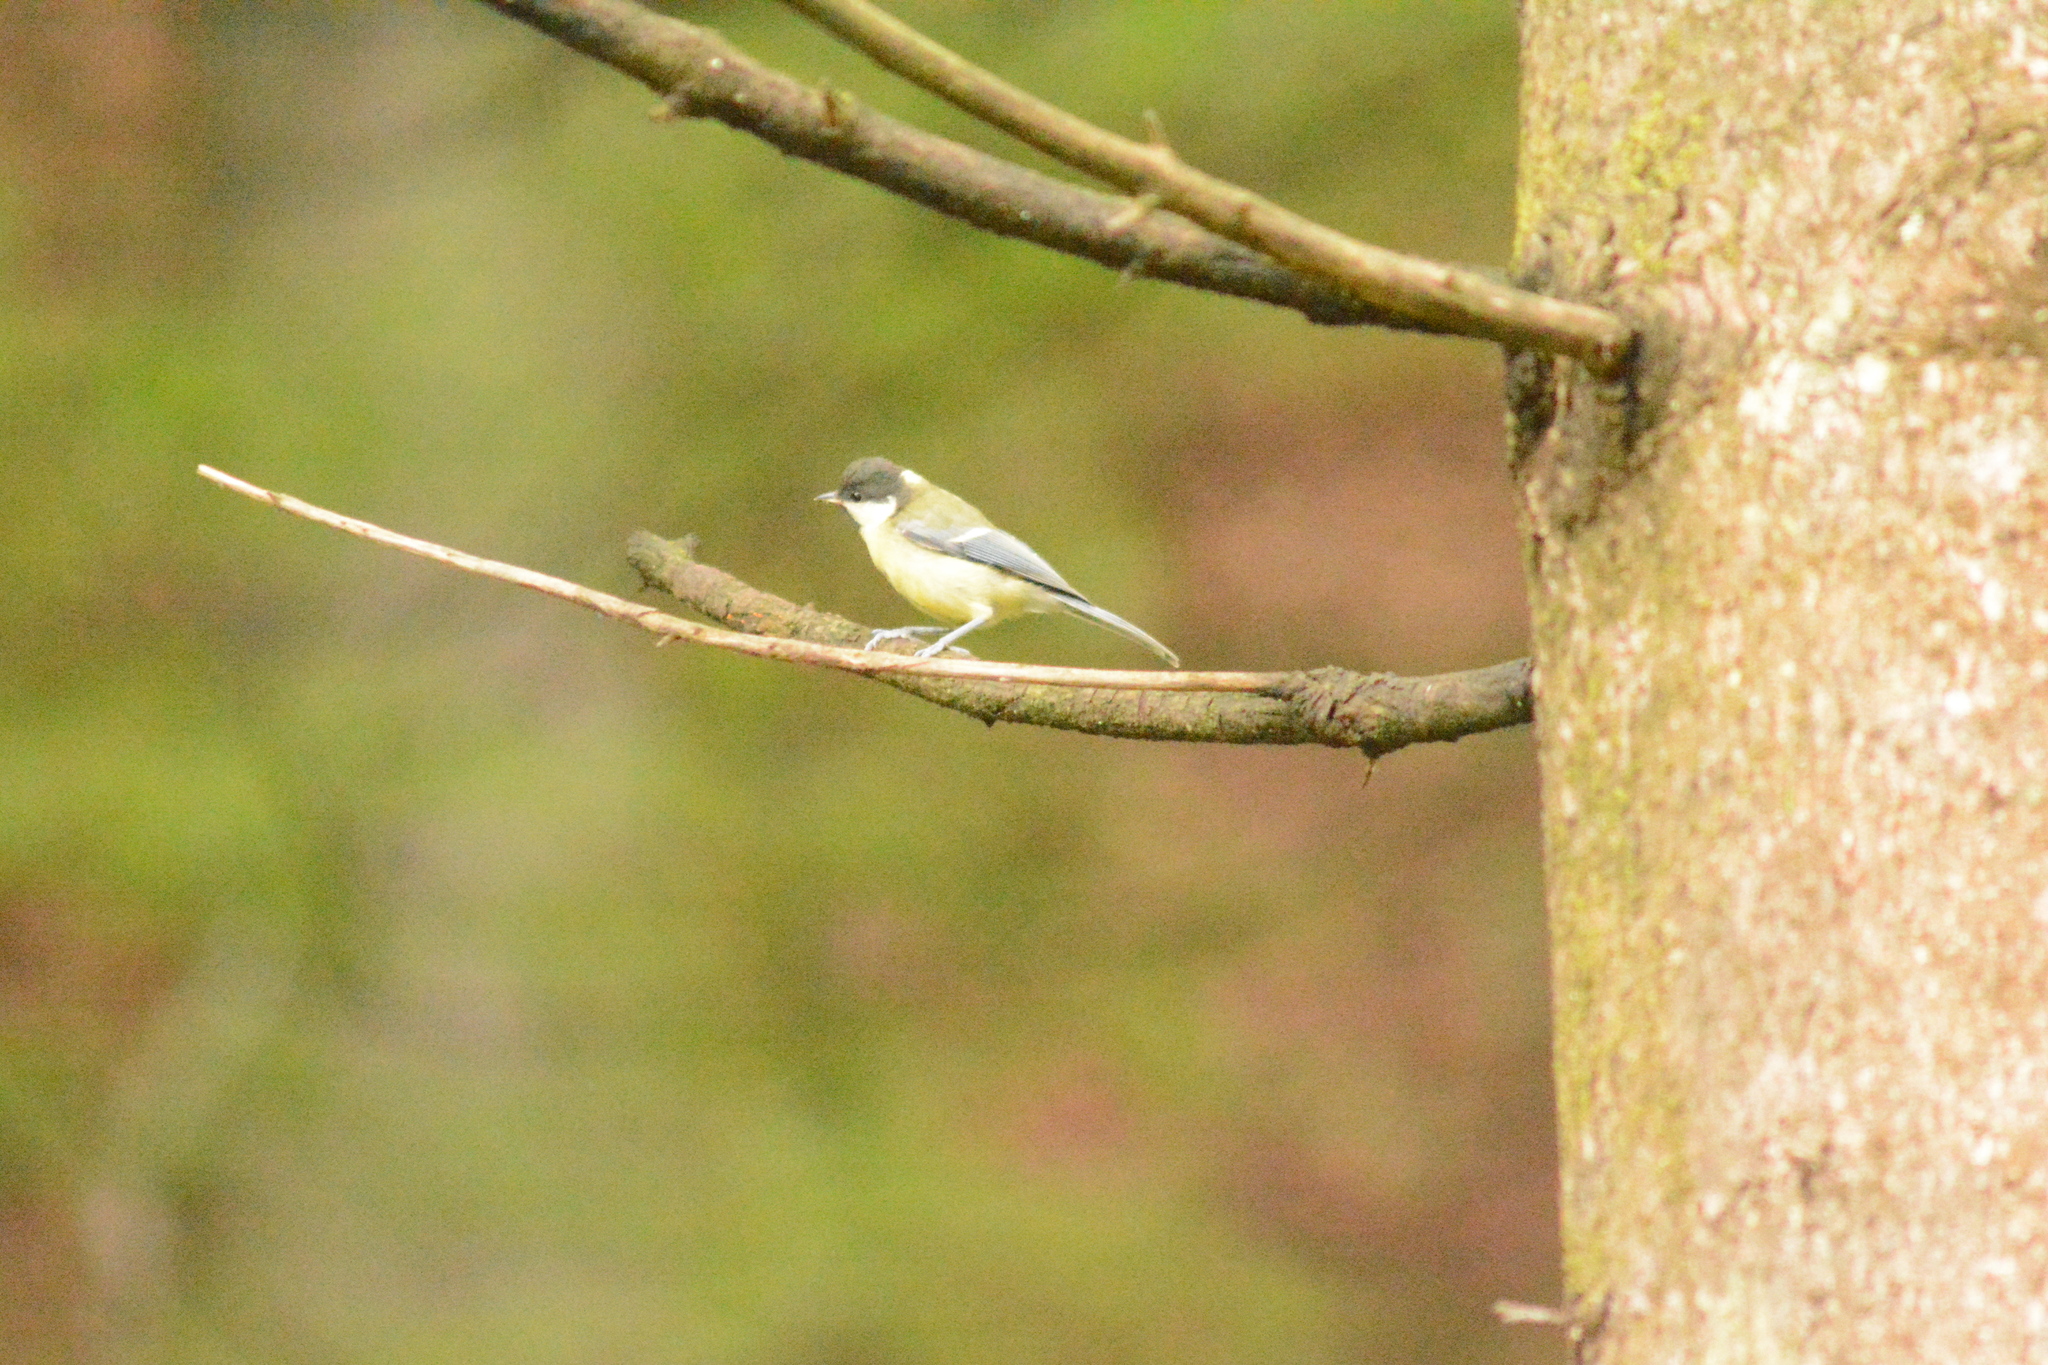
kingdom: Animalia
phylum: Chordata
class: Aves
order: Passeriformes
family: Paridae
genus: Parus
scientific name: Parus major
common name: Great tit
